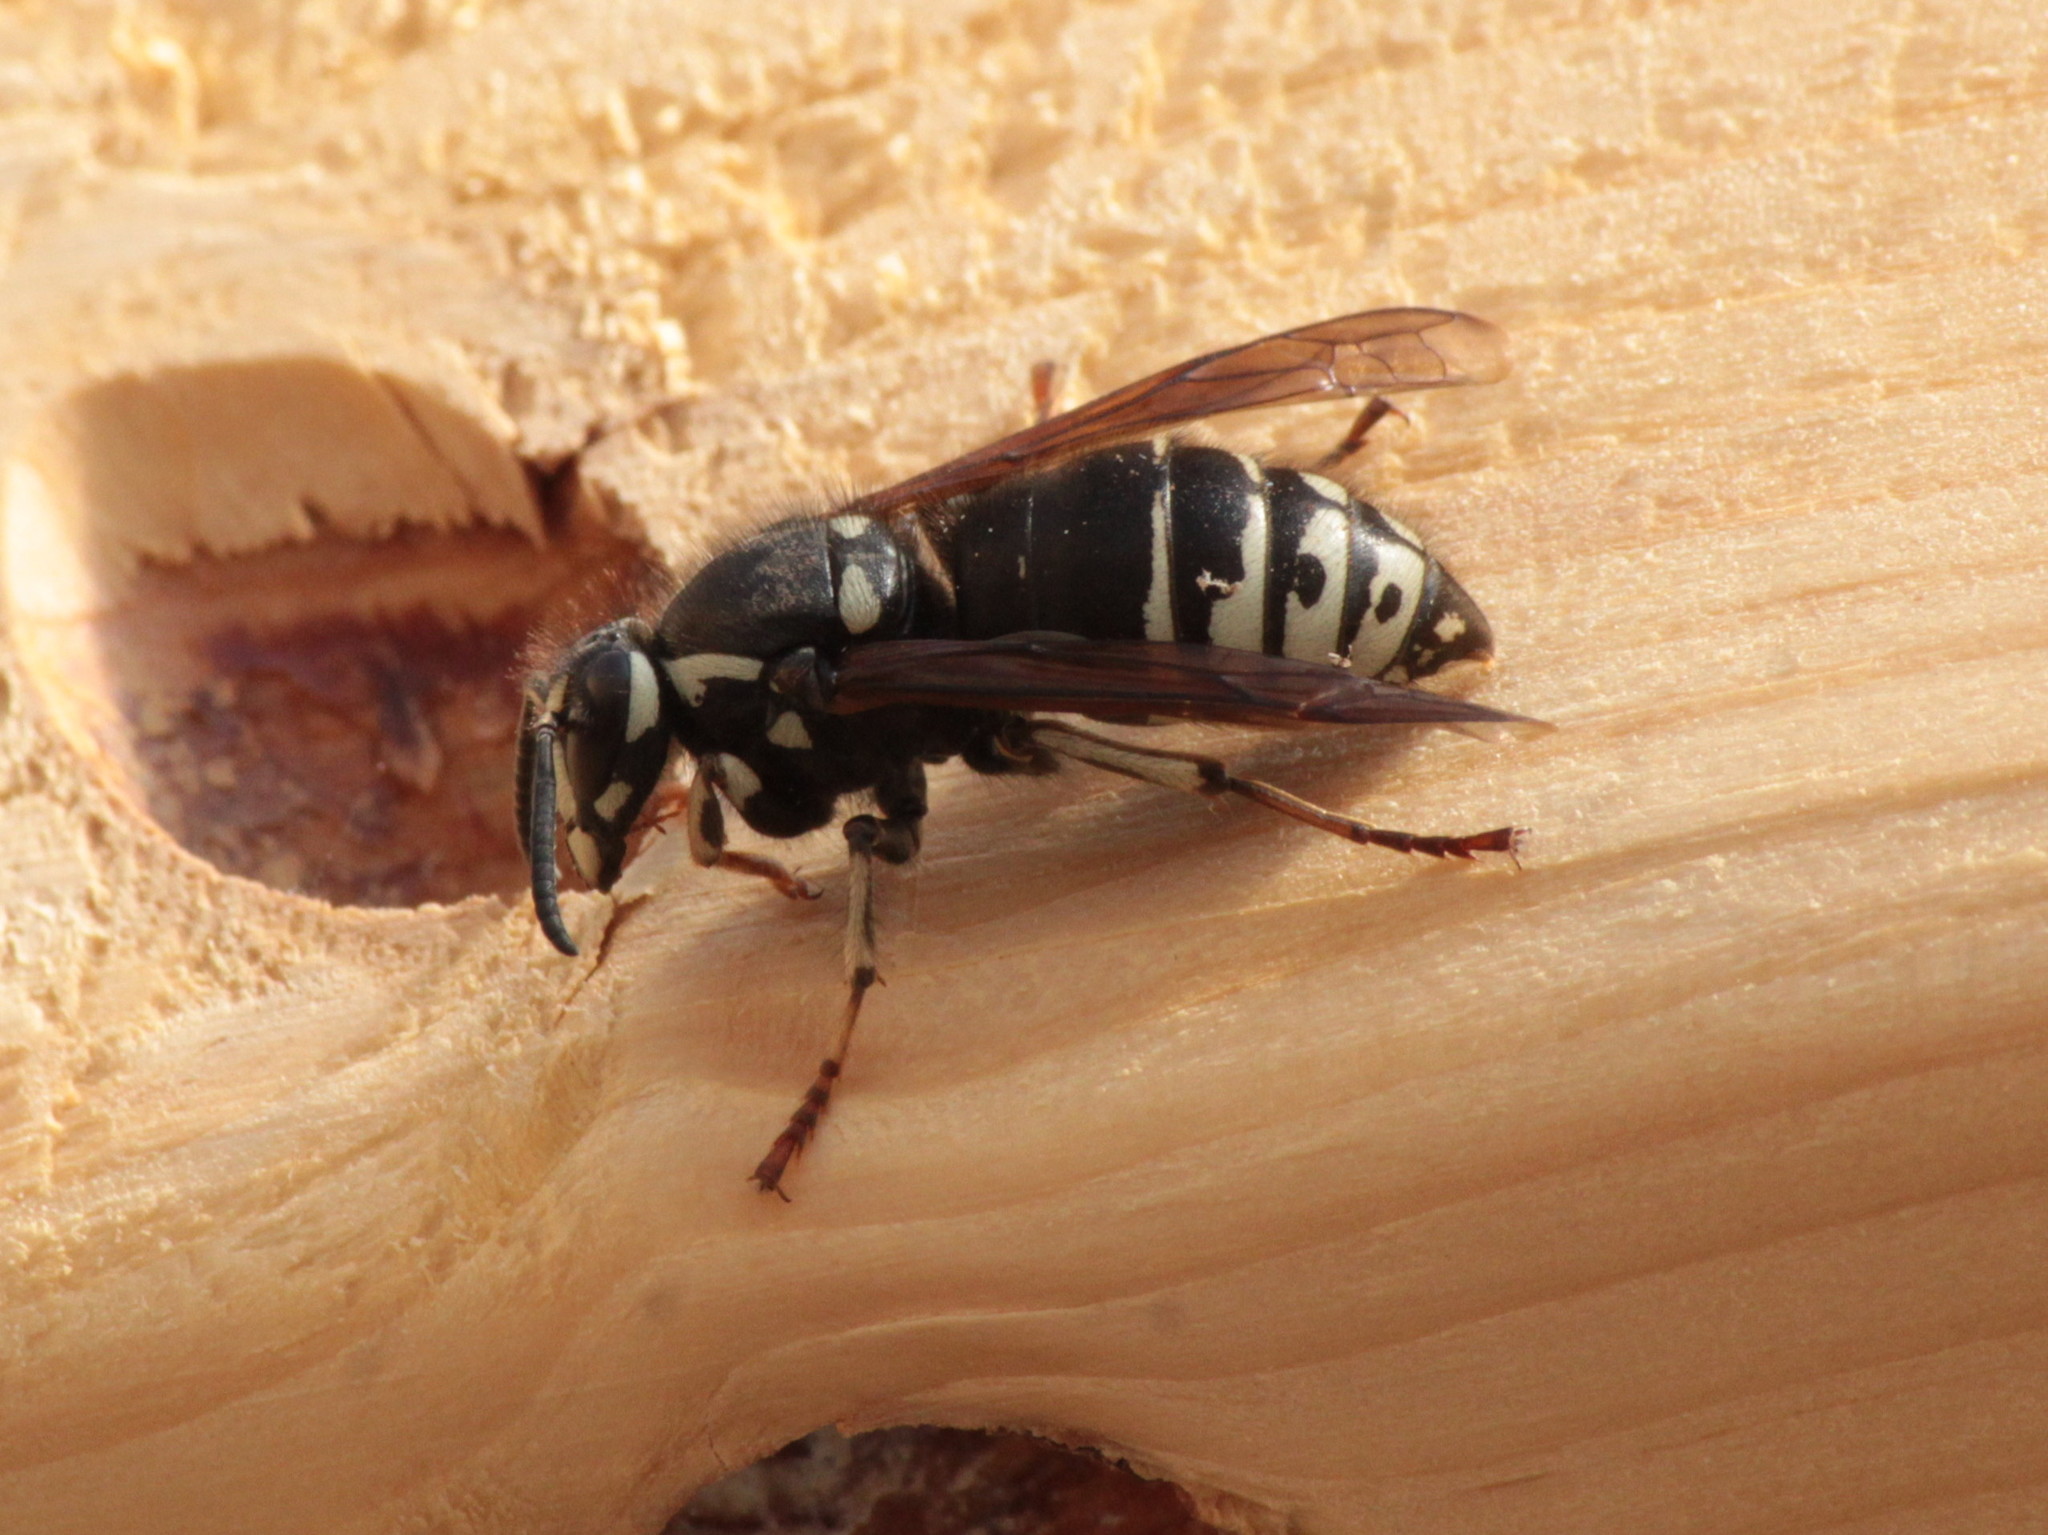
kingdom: Animalia
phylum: Arthropoda
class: Insecta
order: Hymenoptera
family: Vespidae
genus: Dolichovespula
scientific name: Dolichovespula adulterina
